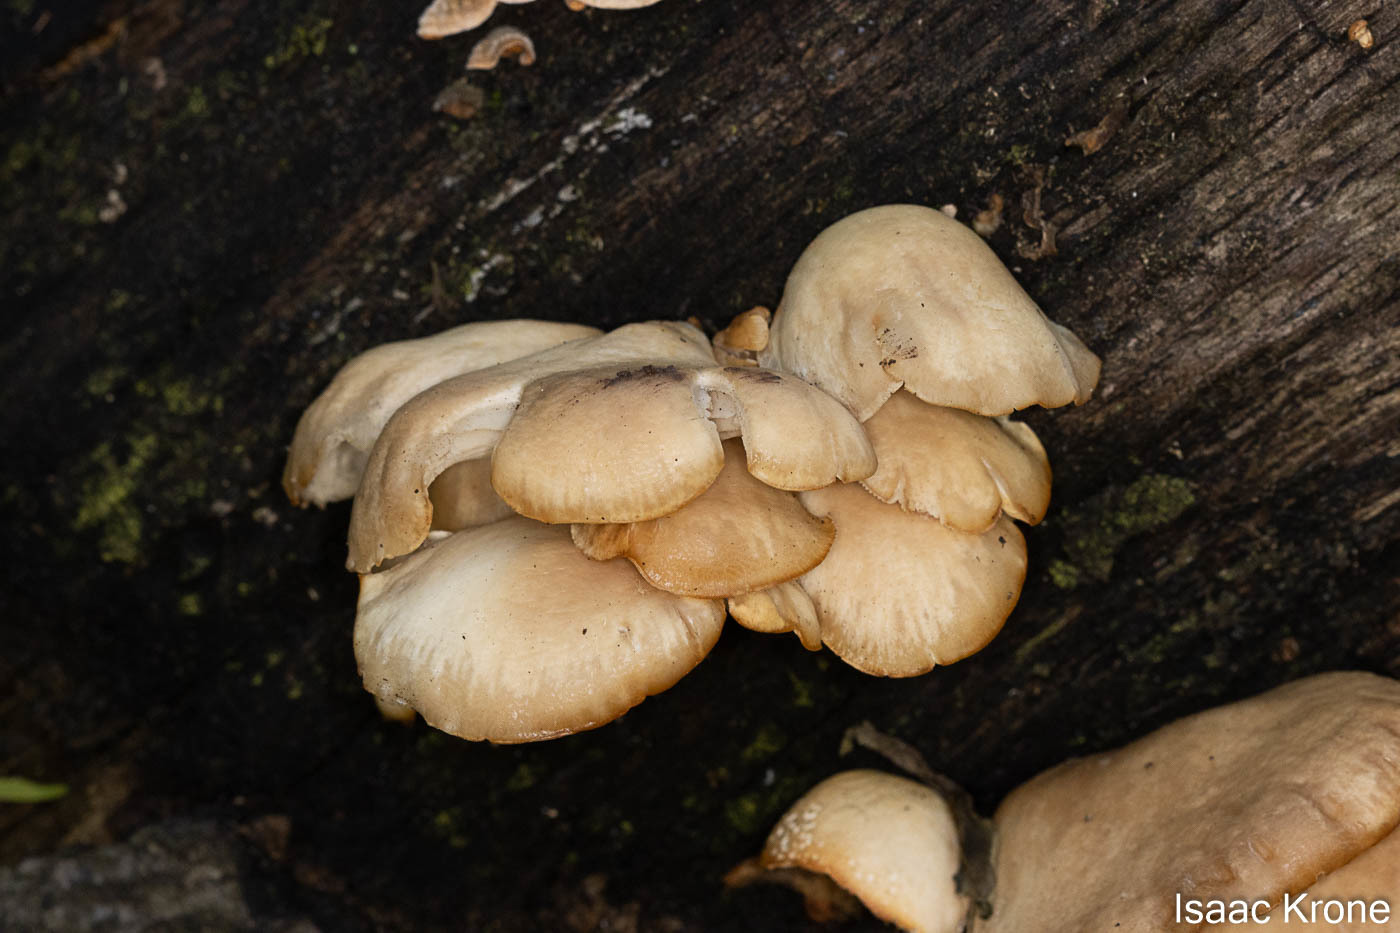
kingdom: Fungi
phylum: Basidiomycota
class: Agaricomycetes
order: Agaricales
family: Pleurotaceae
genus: Pleurotus
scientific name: Pleurotus ostreatus
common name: Oyster mushroom
